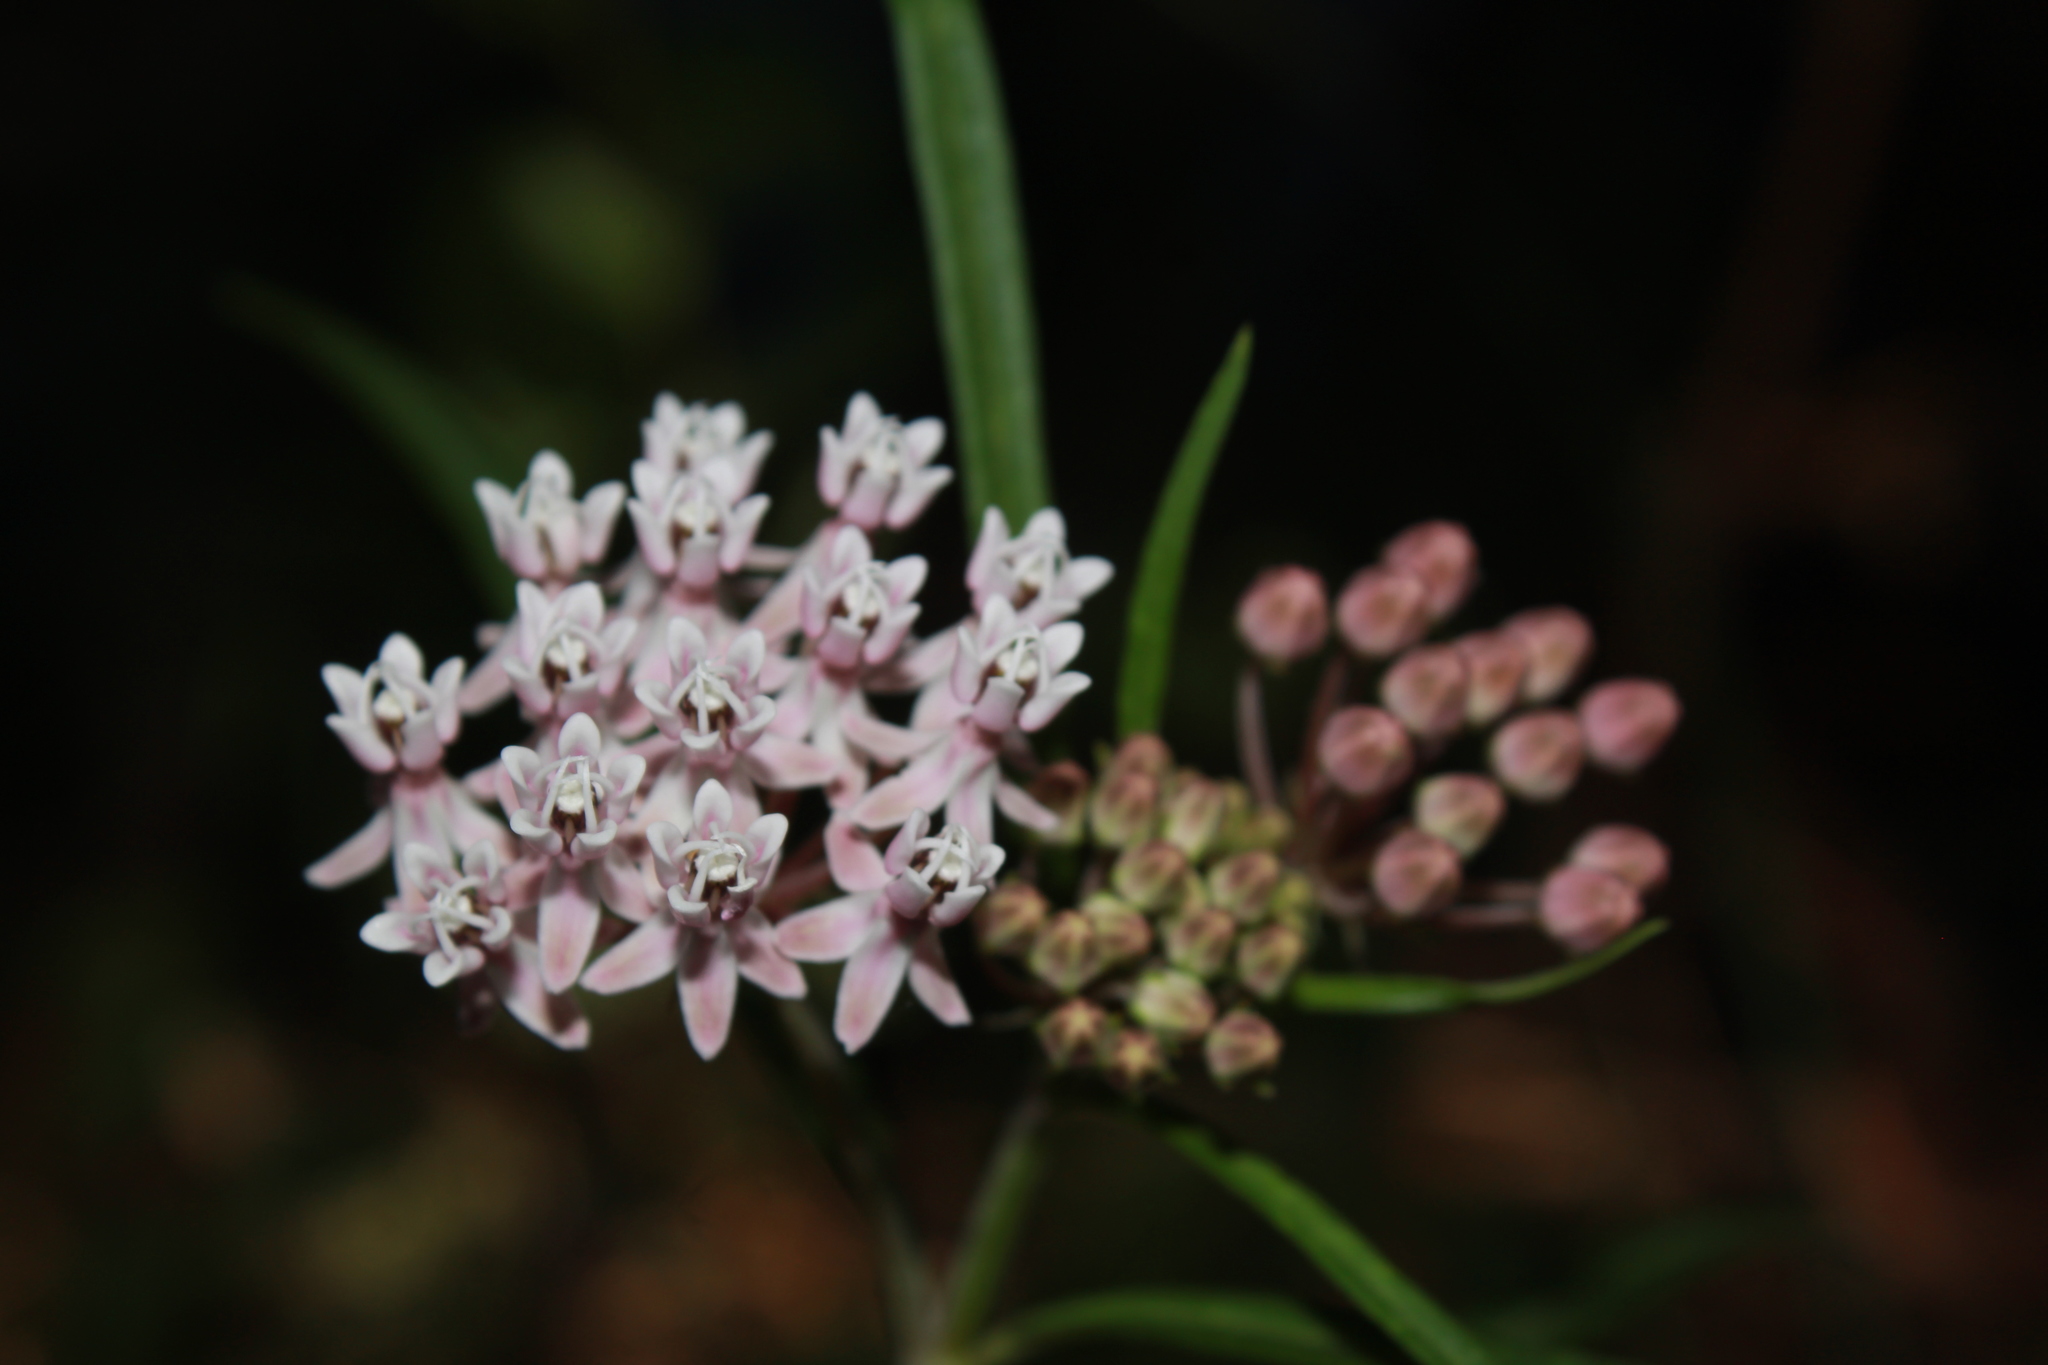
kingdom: Plantae
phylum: Tracheophyta
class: Magnoliopsida
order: Gentianales
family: Apocynaceae
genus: Asclepias
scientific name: Asclepias angustifolia
